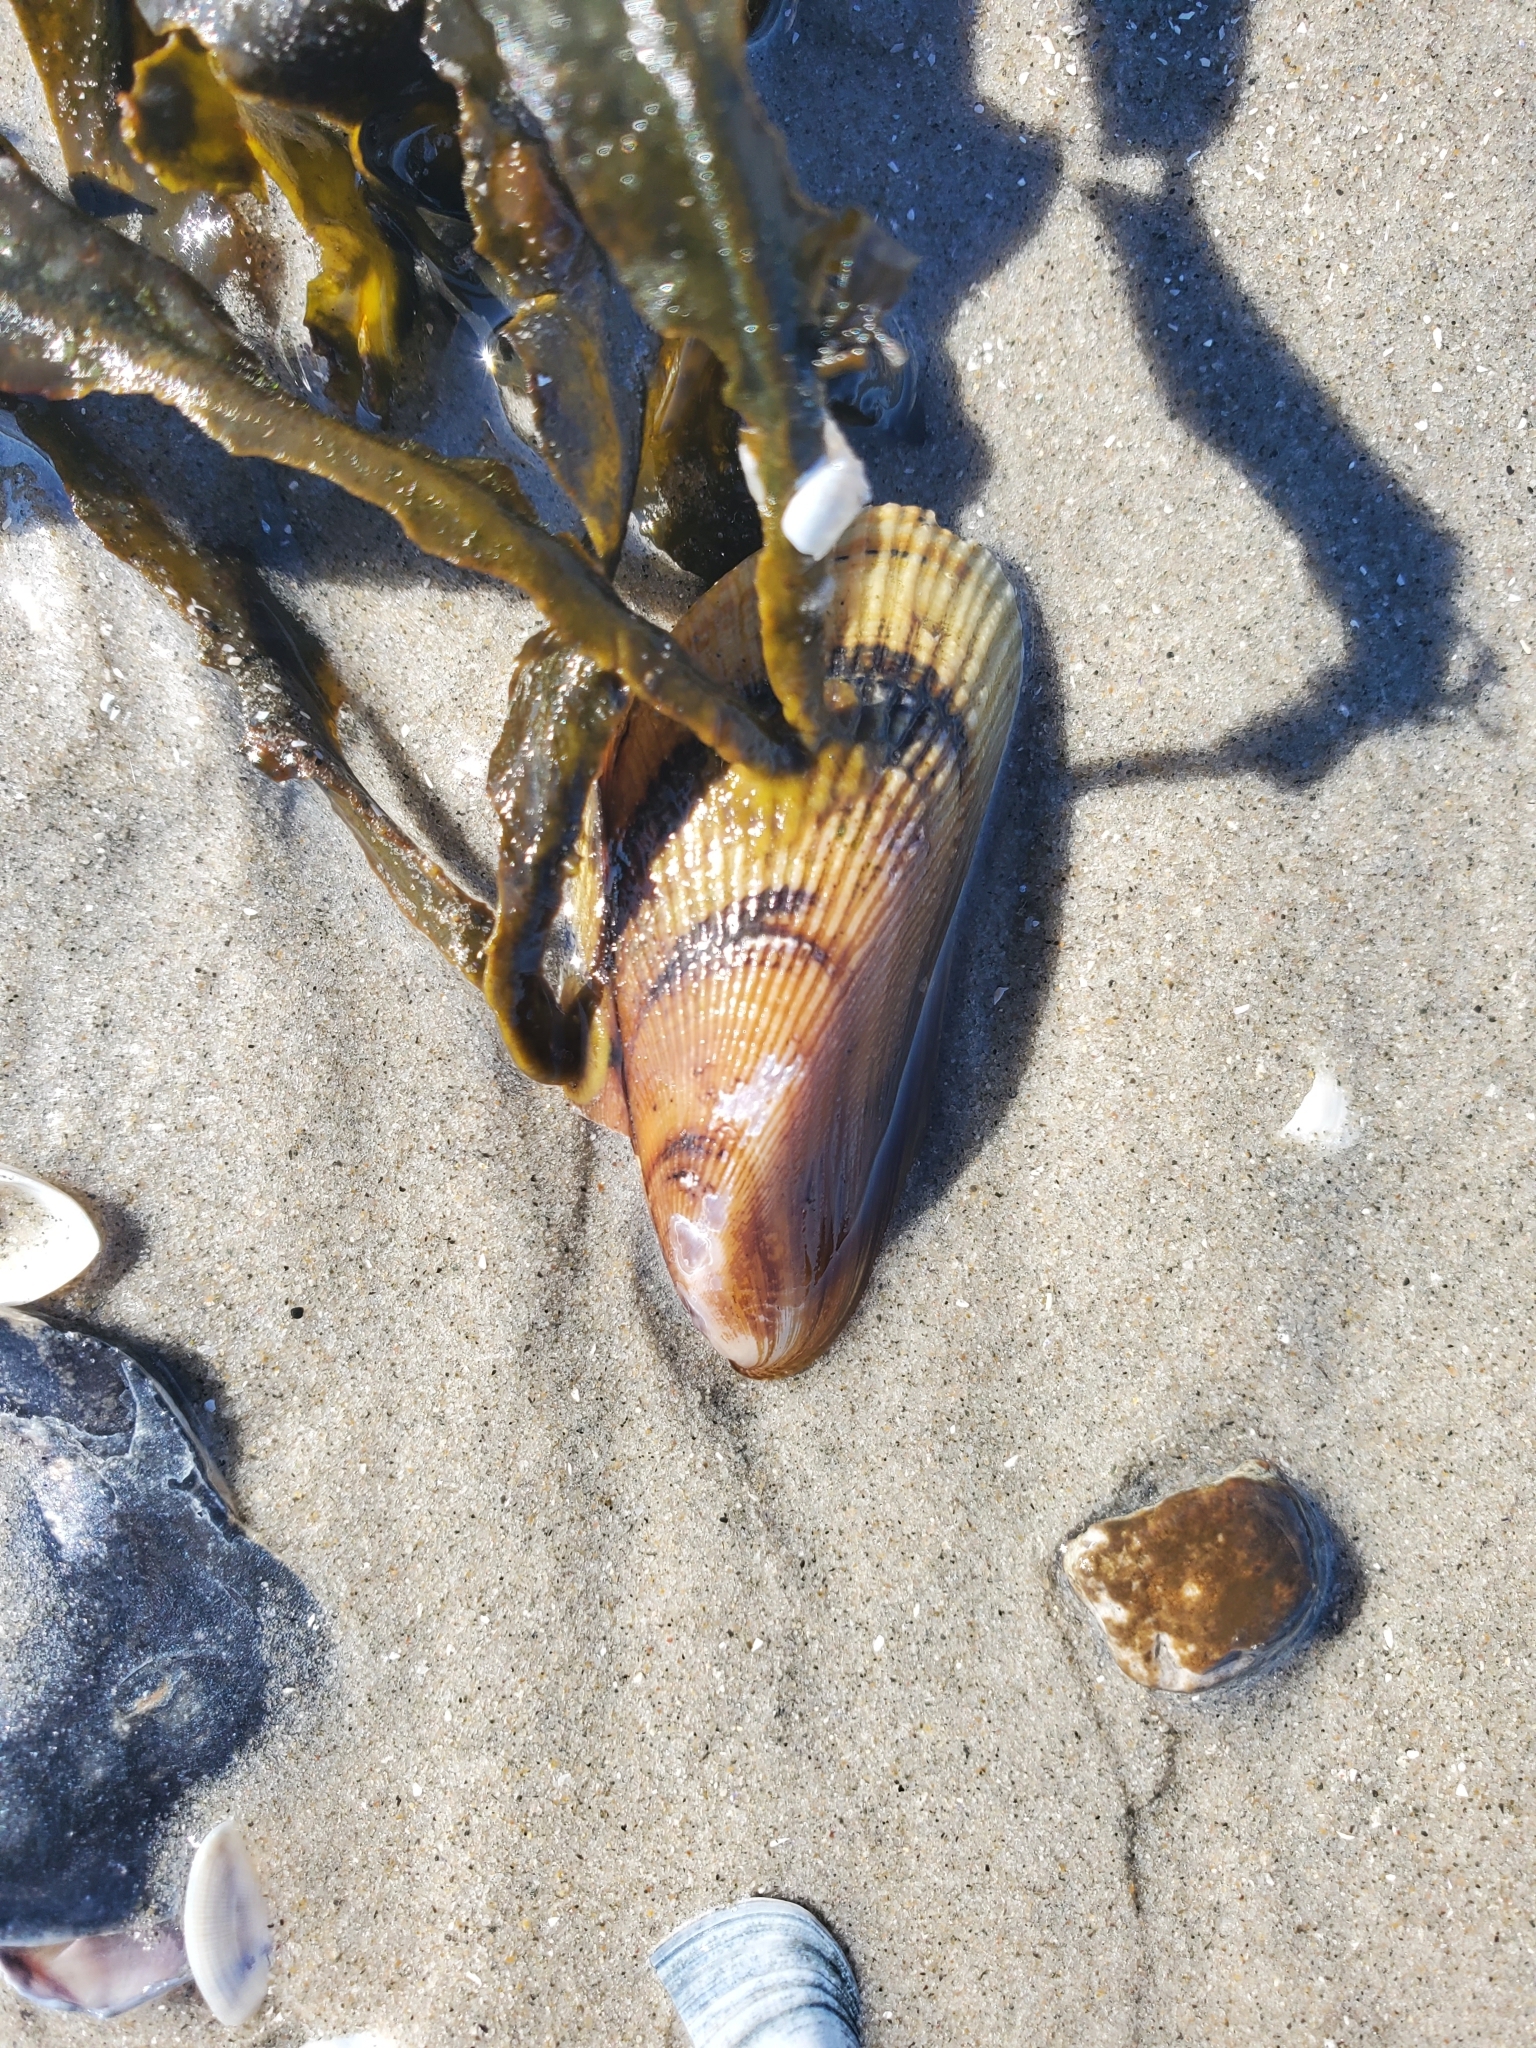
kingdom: Animalia
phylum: Mollusca
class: Bivalvia
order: Mytilida
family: Mytilidae
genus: Geukensia
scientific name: Geukensia demissa
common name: Ribbed mussel
